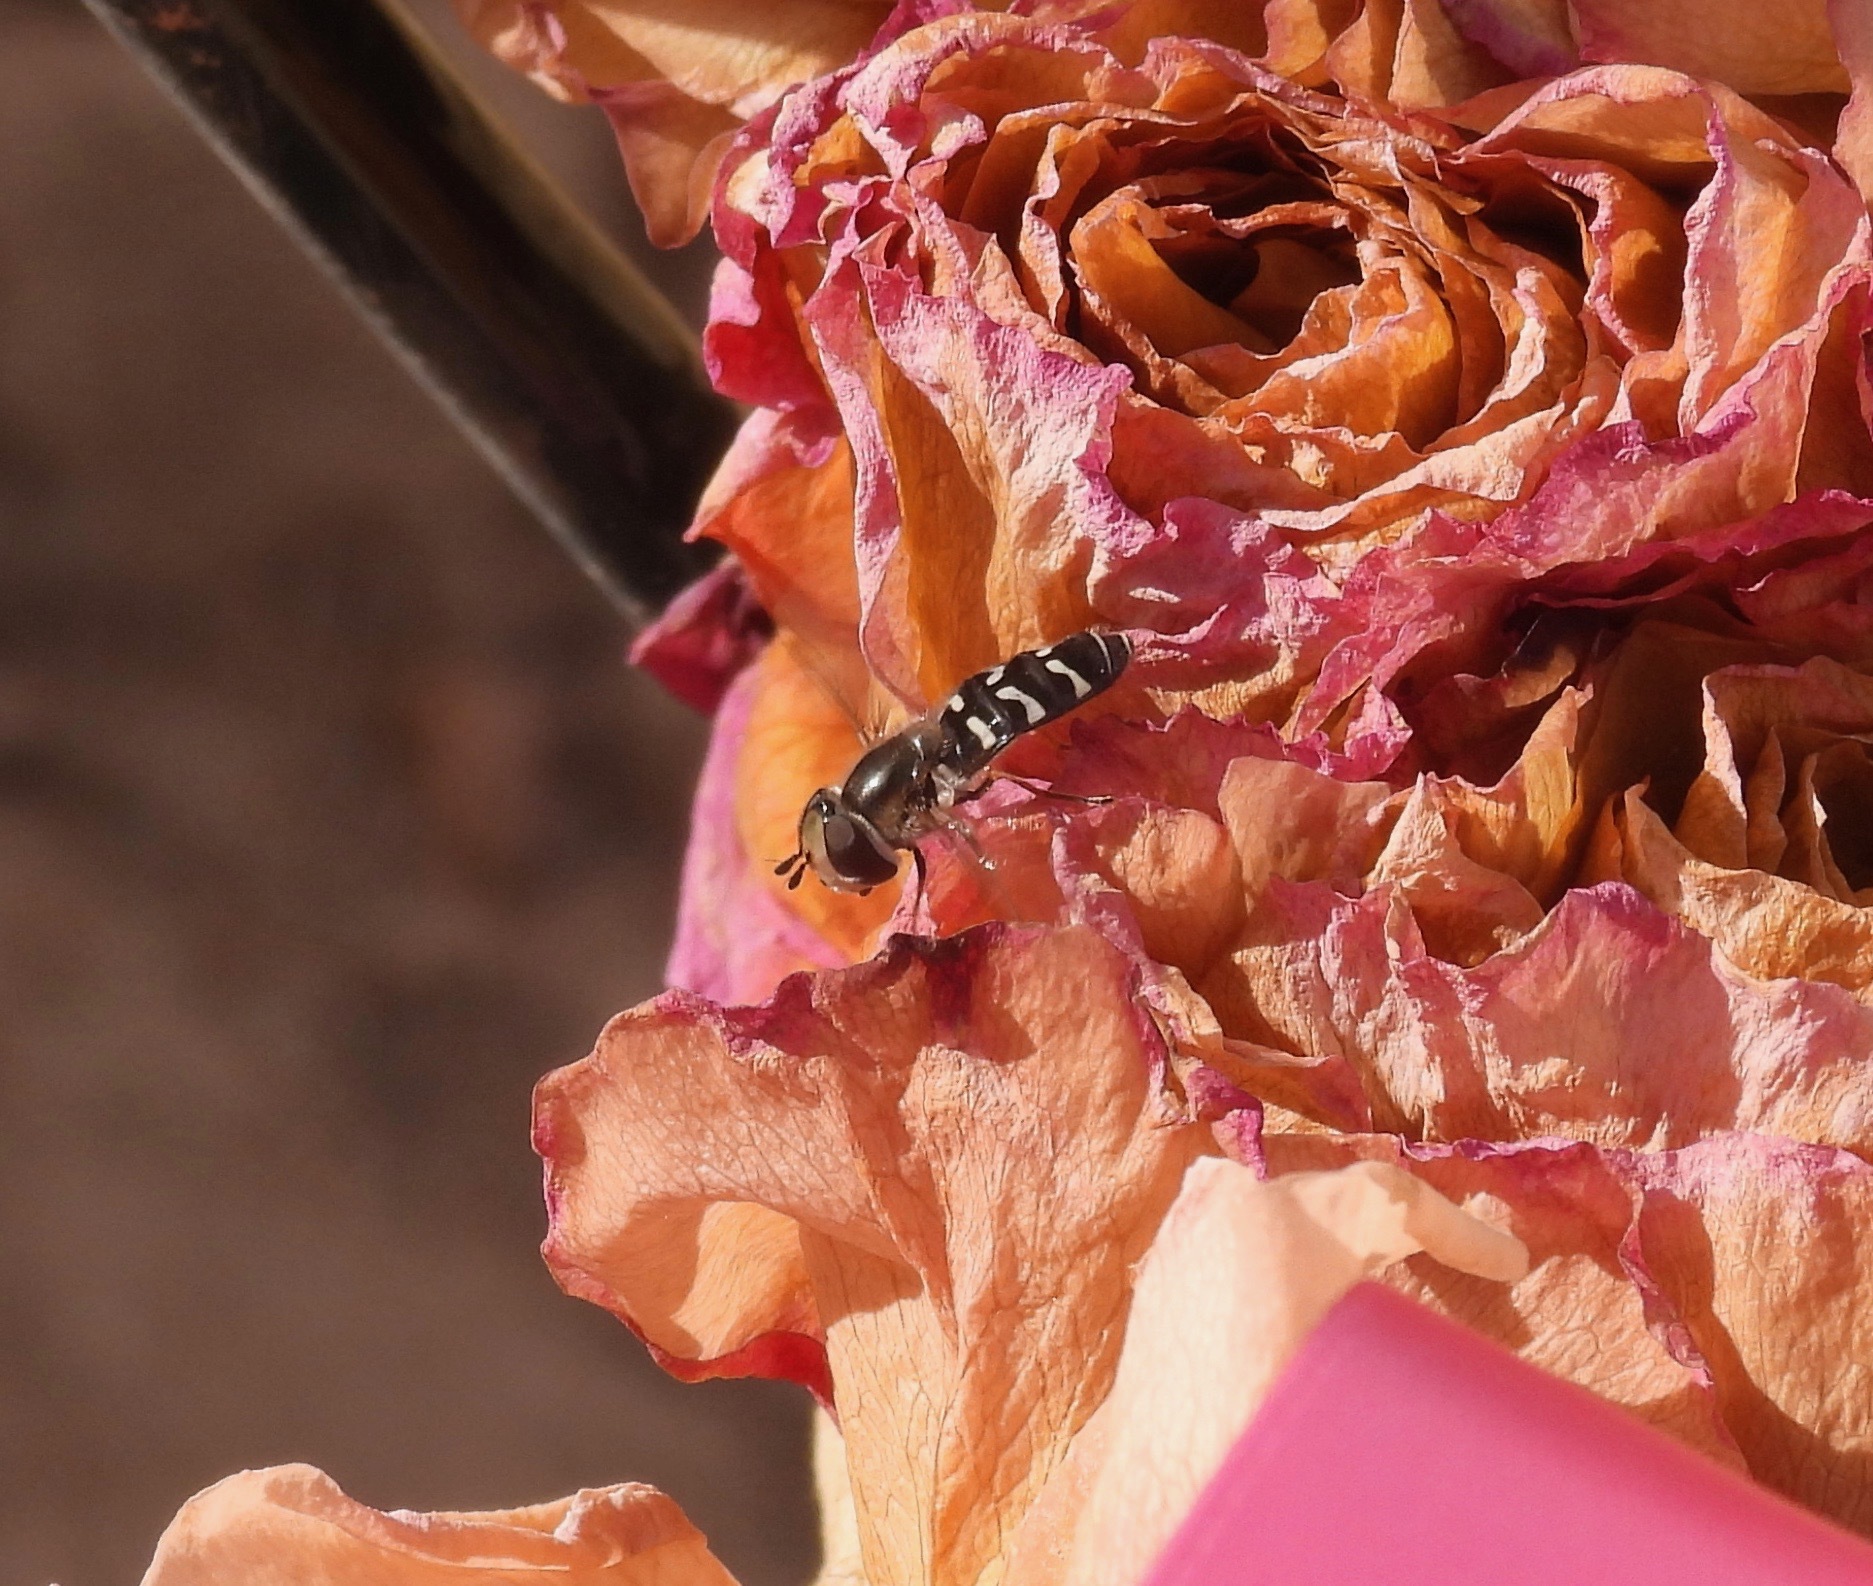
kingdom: Animalia
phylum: Arthropoda
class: Insecta
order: Diptera
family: Syrphidae
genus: Scaeva
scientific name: Scaeva affinis
